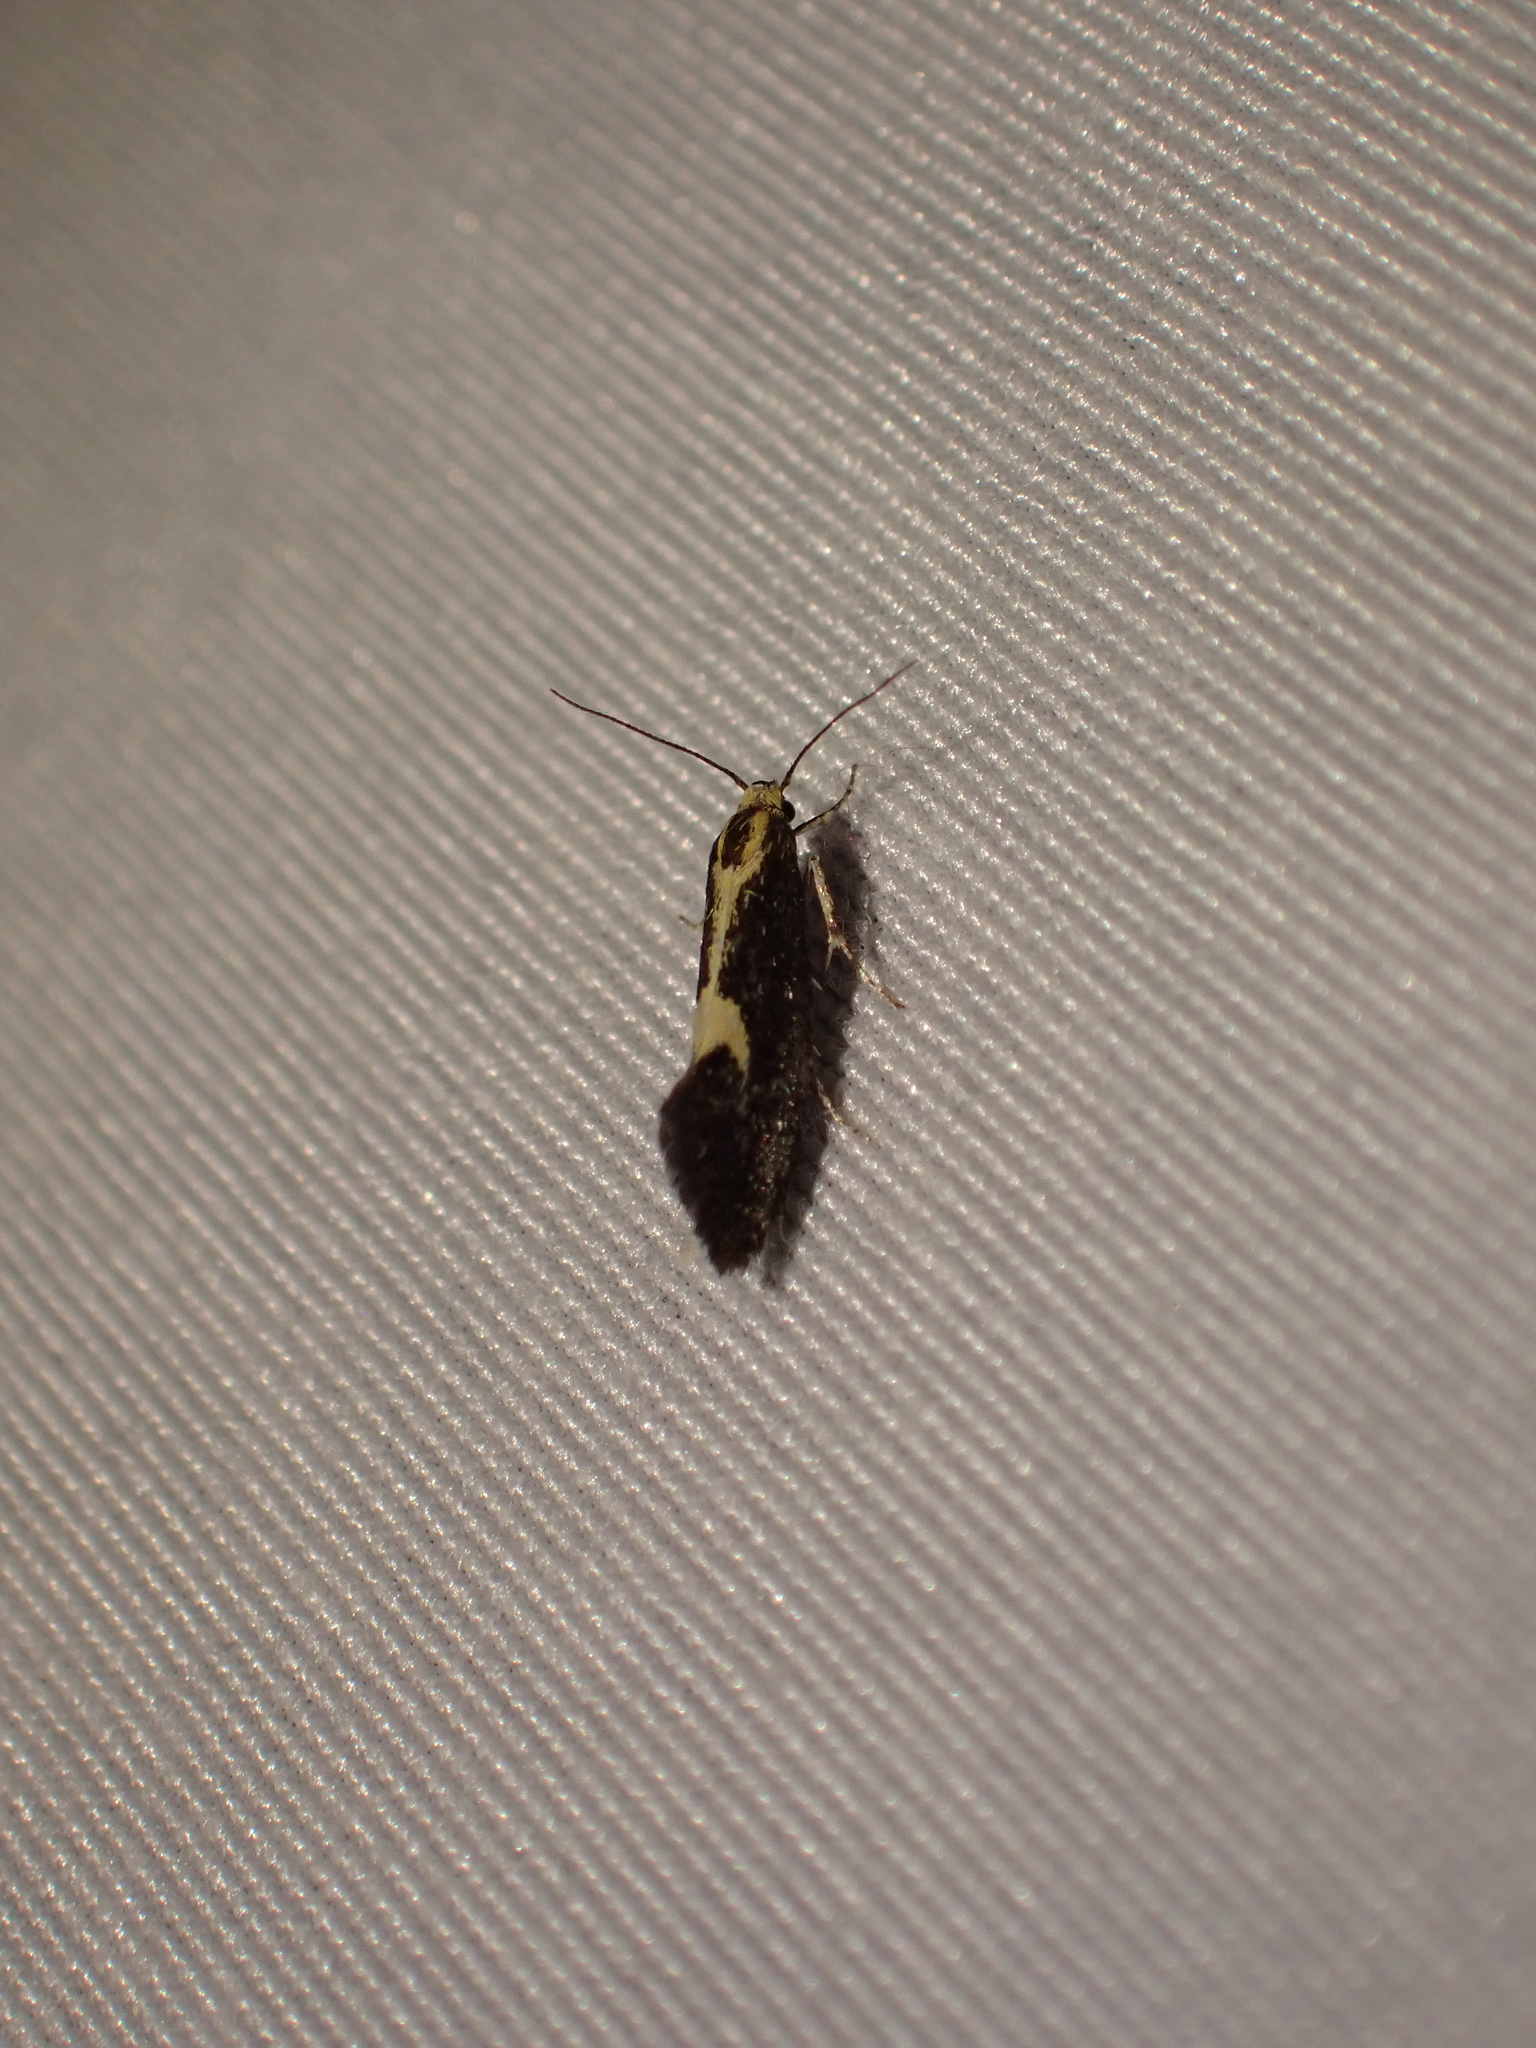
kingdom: Animalia
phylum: Arthropoda
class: Insecta
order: Lepidoptera
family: Oecophoridae
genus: Polix
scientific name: Polix coloradella
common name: Skunk moth
